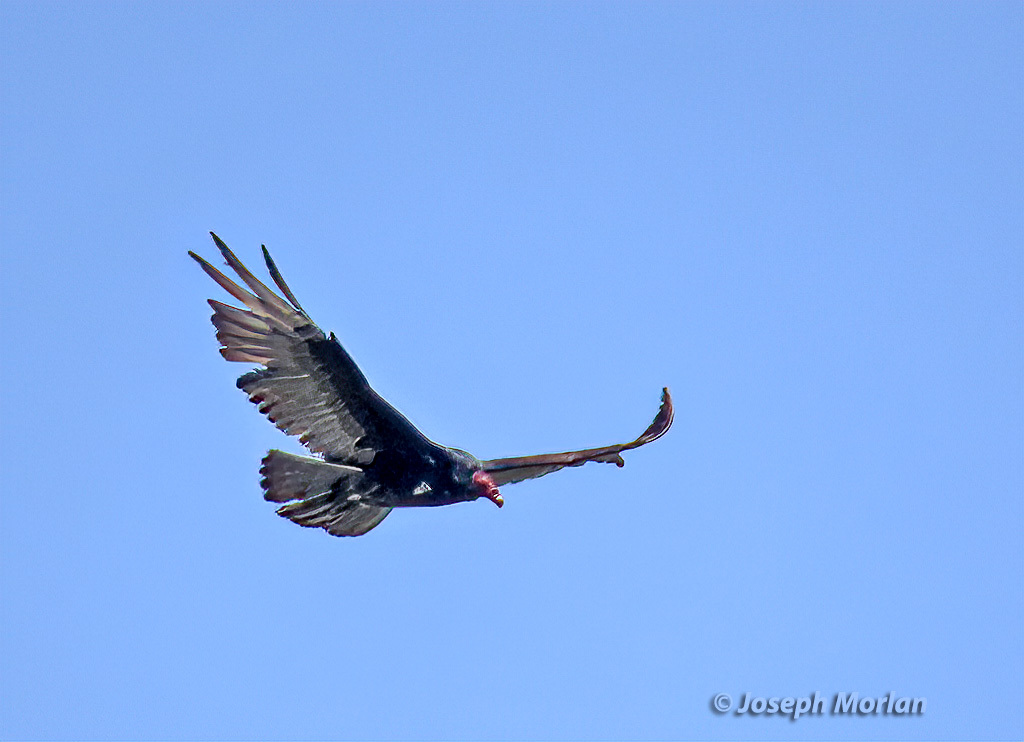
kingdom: Animalia
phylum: Chordata
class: Aves
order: Accipitriformes
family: Cathartidae
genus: Cathartes
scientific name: Cathartes aura
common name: Turkey vulture
